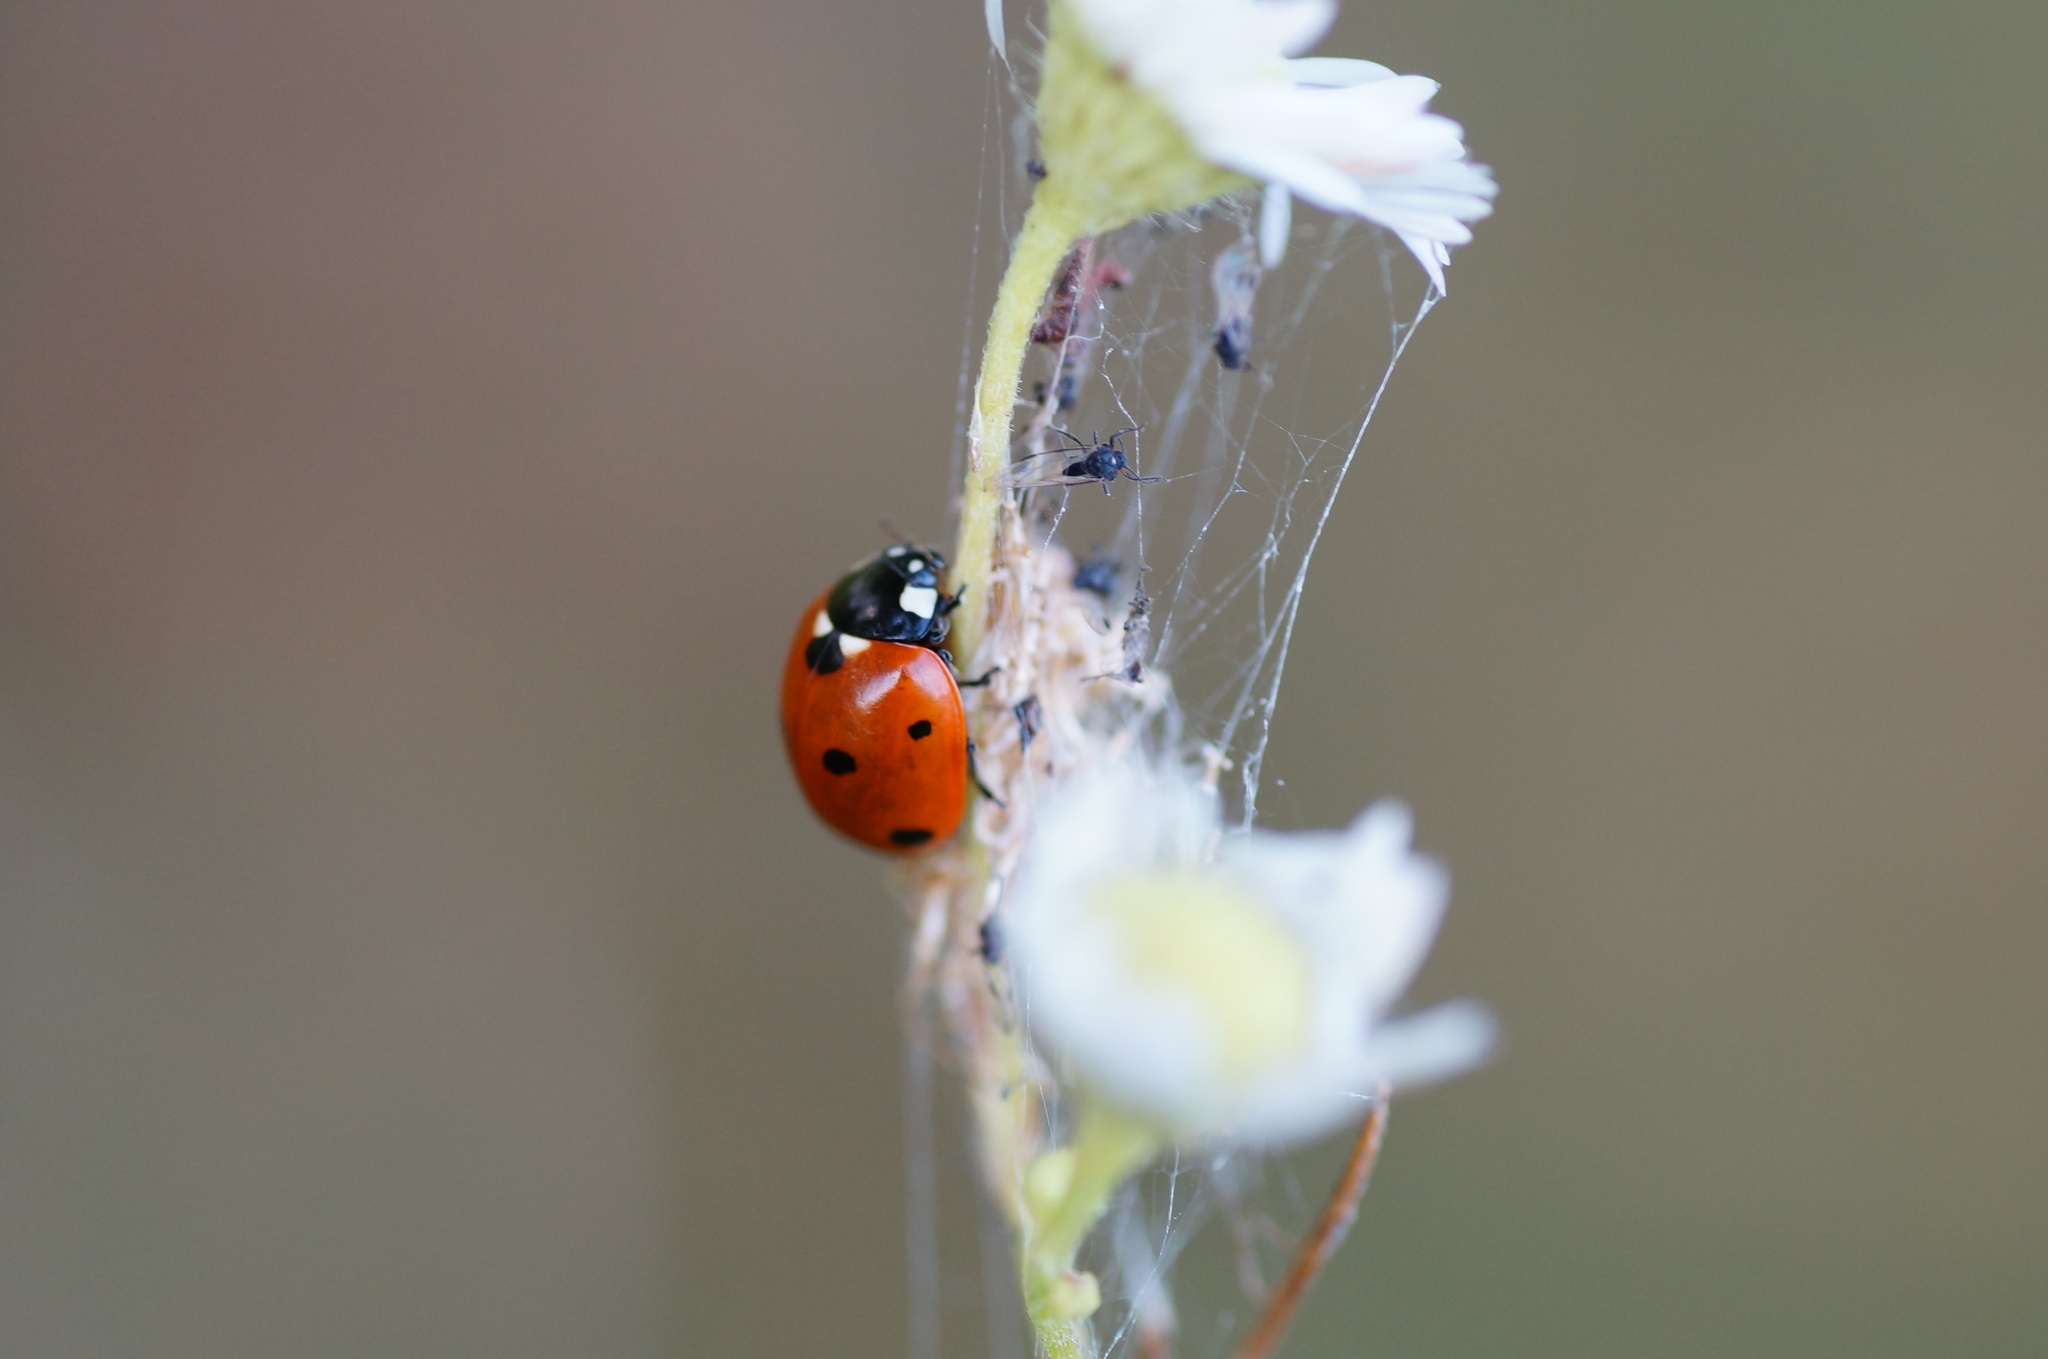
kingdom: Animalia
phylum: Arthropoda
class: Insecta
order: Coleoptera
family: Coccinellidae
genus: Coccinella
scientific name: Coccinella septempunctata
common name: Sevenspotted lady beetle
